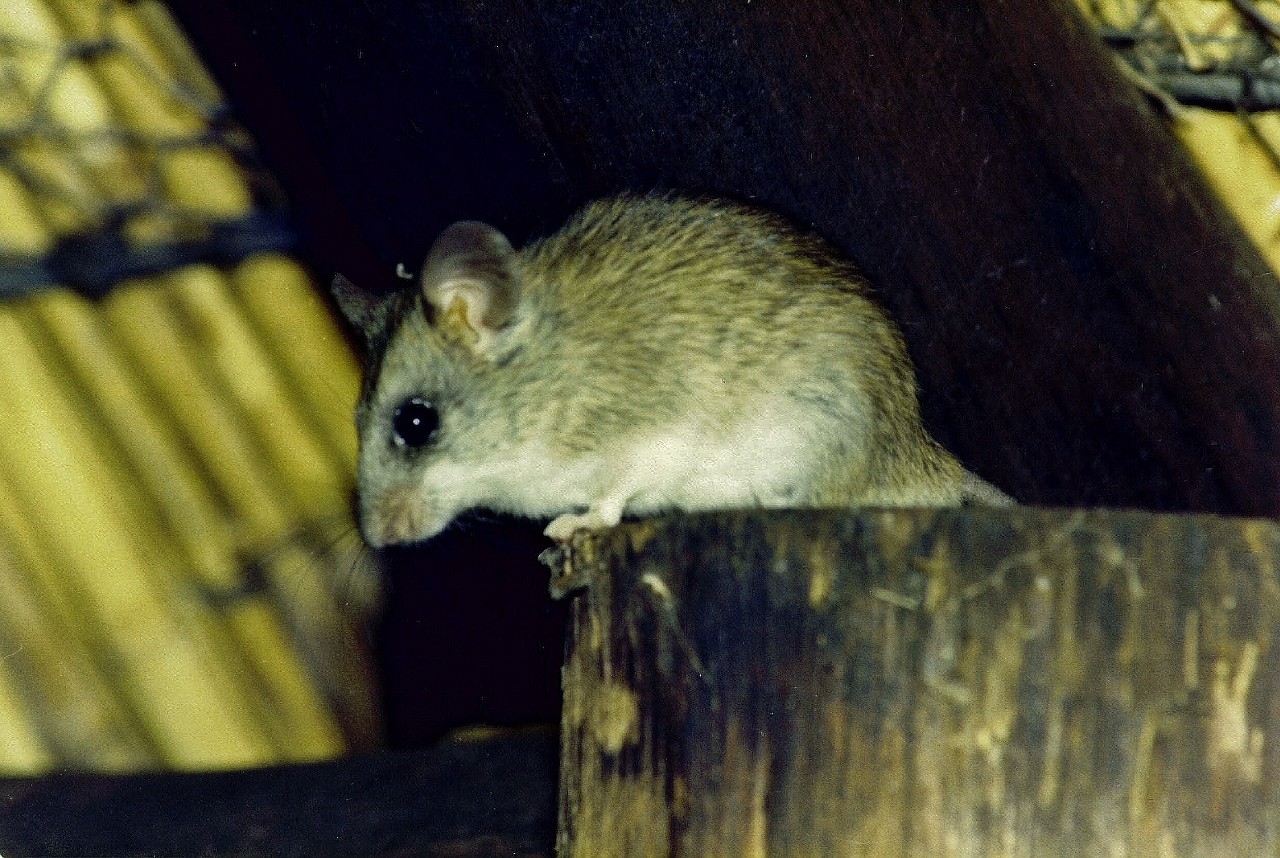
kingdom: Animalia
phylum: Chordata
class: Mammalia
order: Rodentia
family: Muridae
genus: Thallomys
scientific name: Thallomys paedulcus
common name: Acacia thallomys
